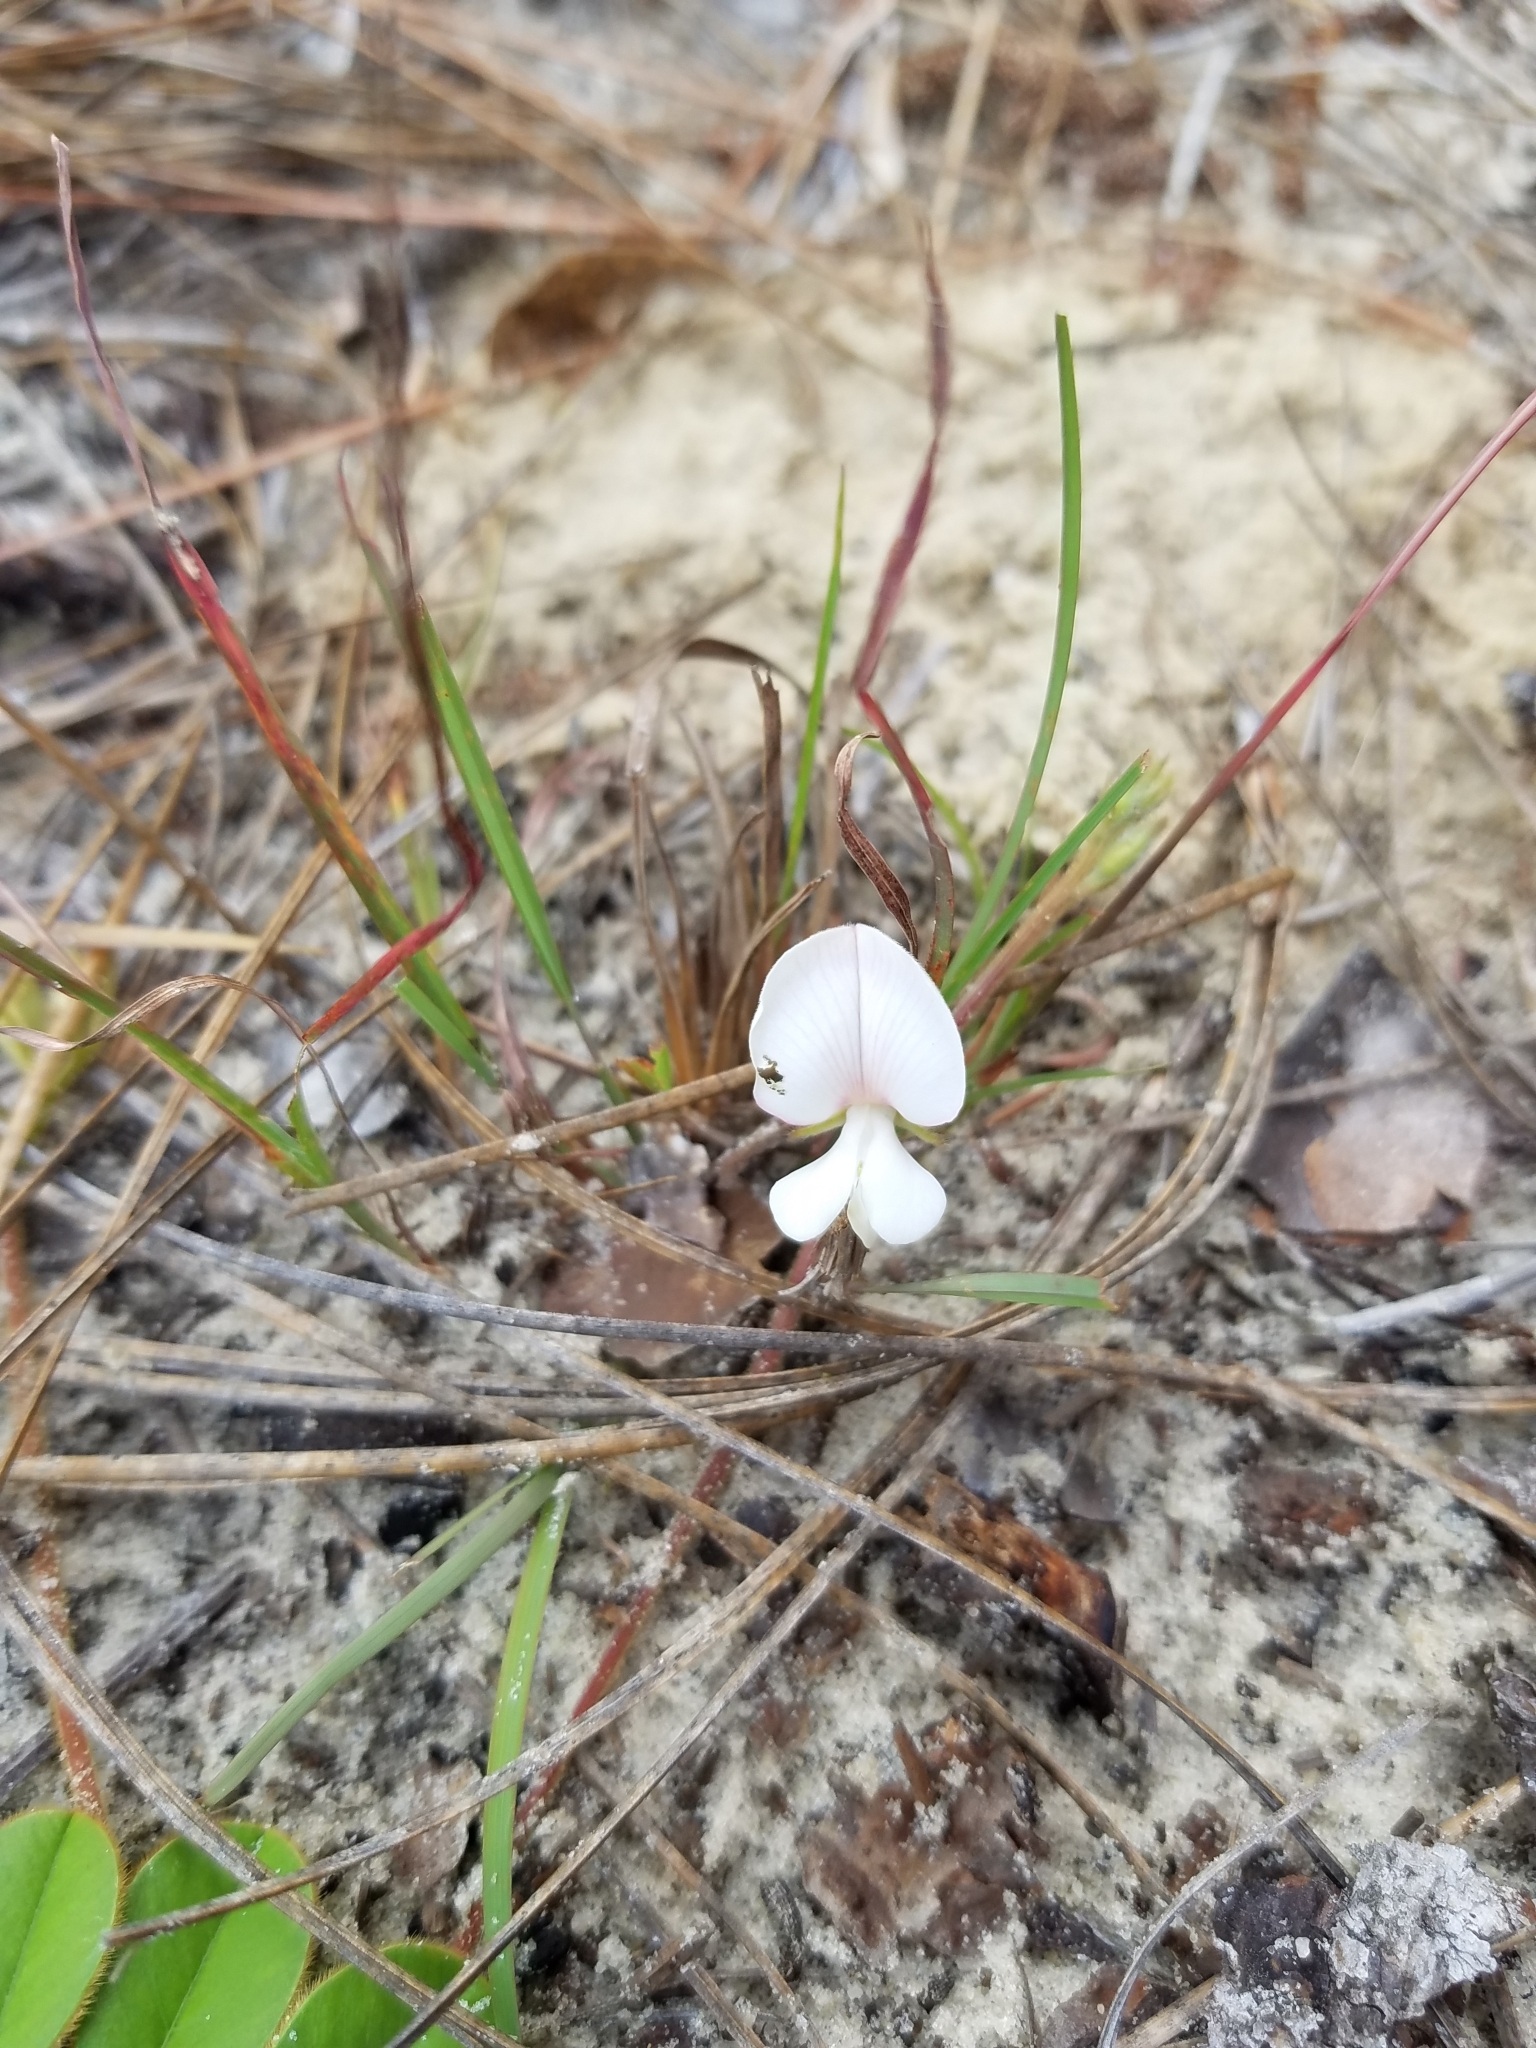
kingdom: Plantae
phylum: Tracheophyta
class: Magnoliopsida
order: Fabales
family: Fabaceae
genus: Tephrosia
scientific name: Tephrosia chrysophylla
